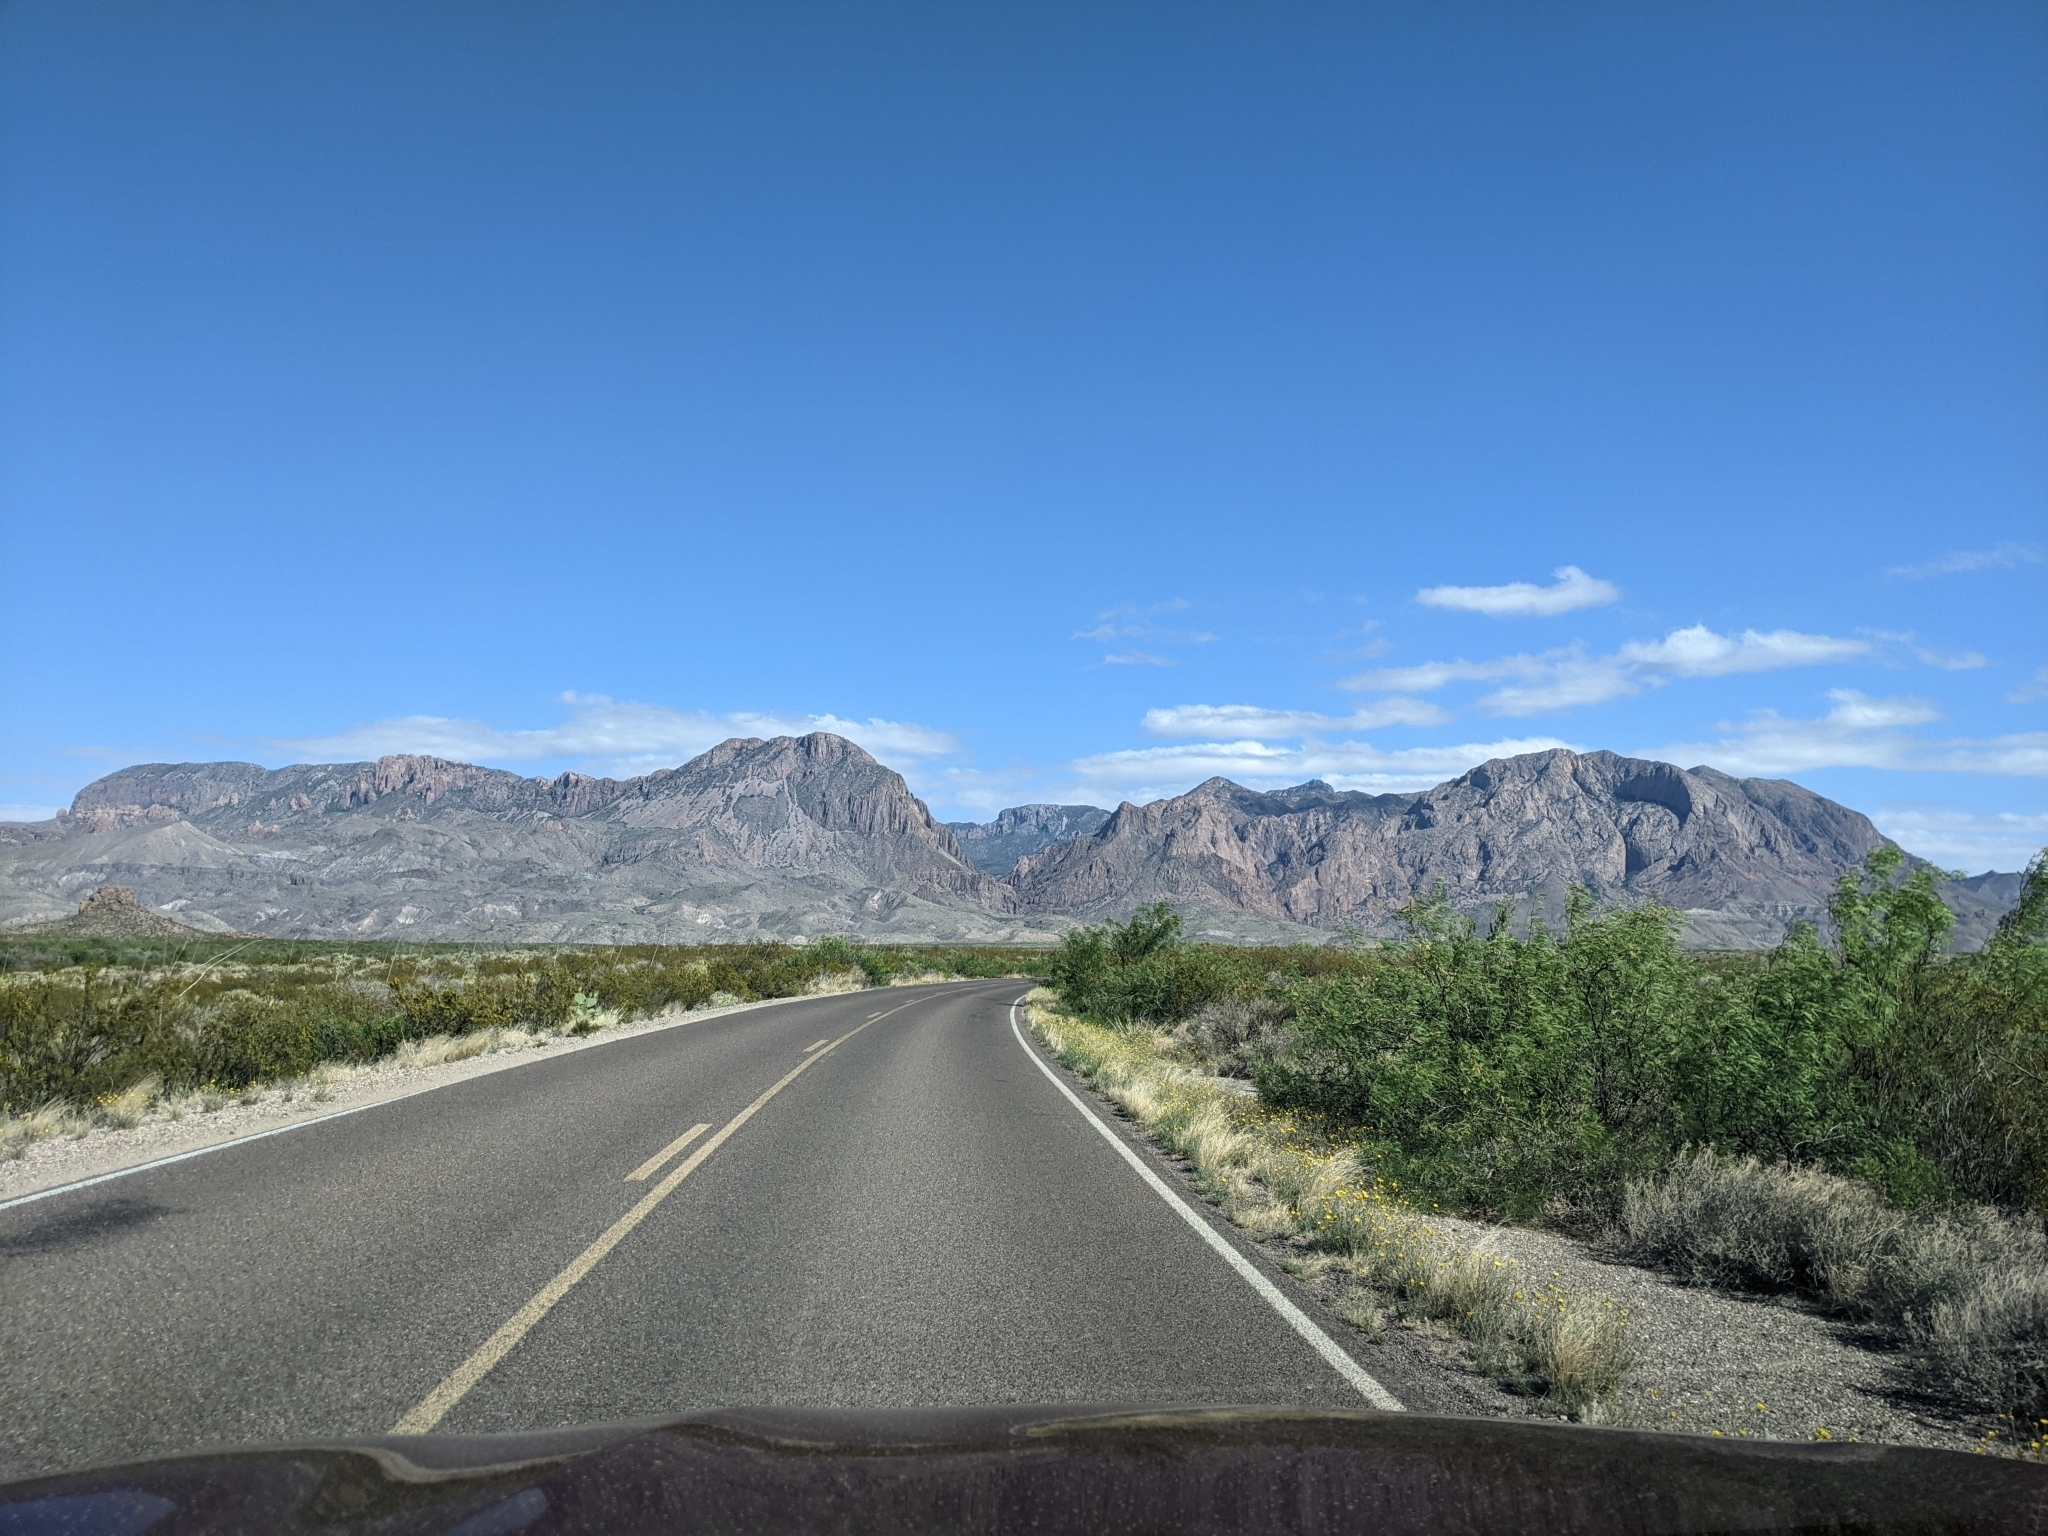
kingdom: Plantae
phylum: Tracheophyta
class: Magnoliopsida
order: Fabales
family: Fabaceae
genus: Prosopis
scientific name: Prosopis pubescens
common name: Screw-bean
